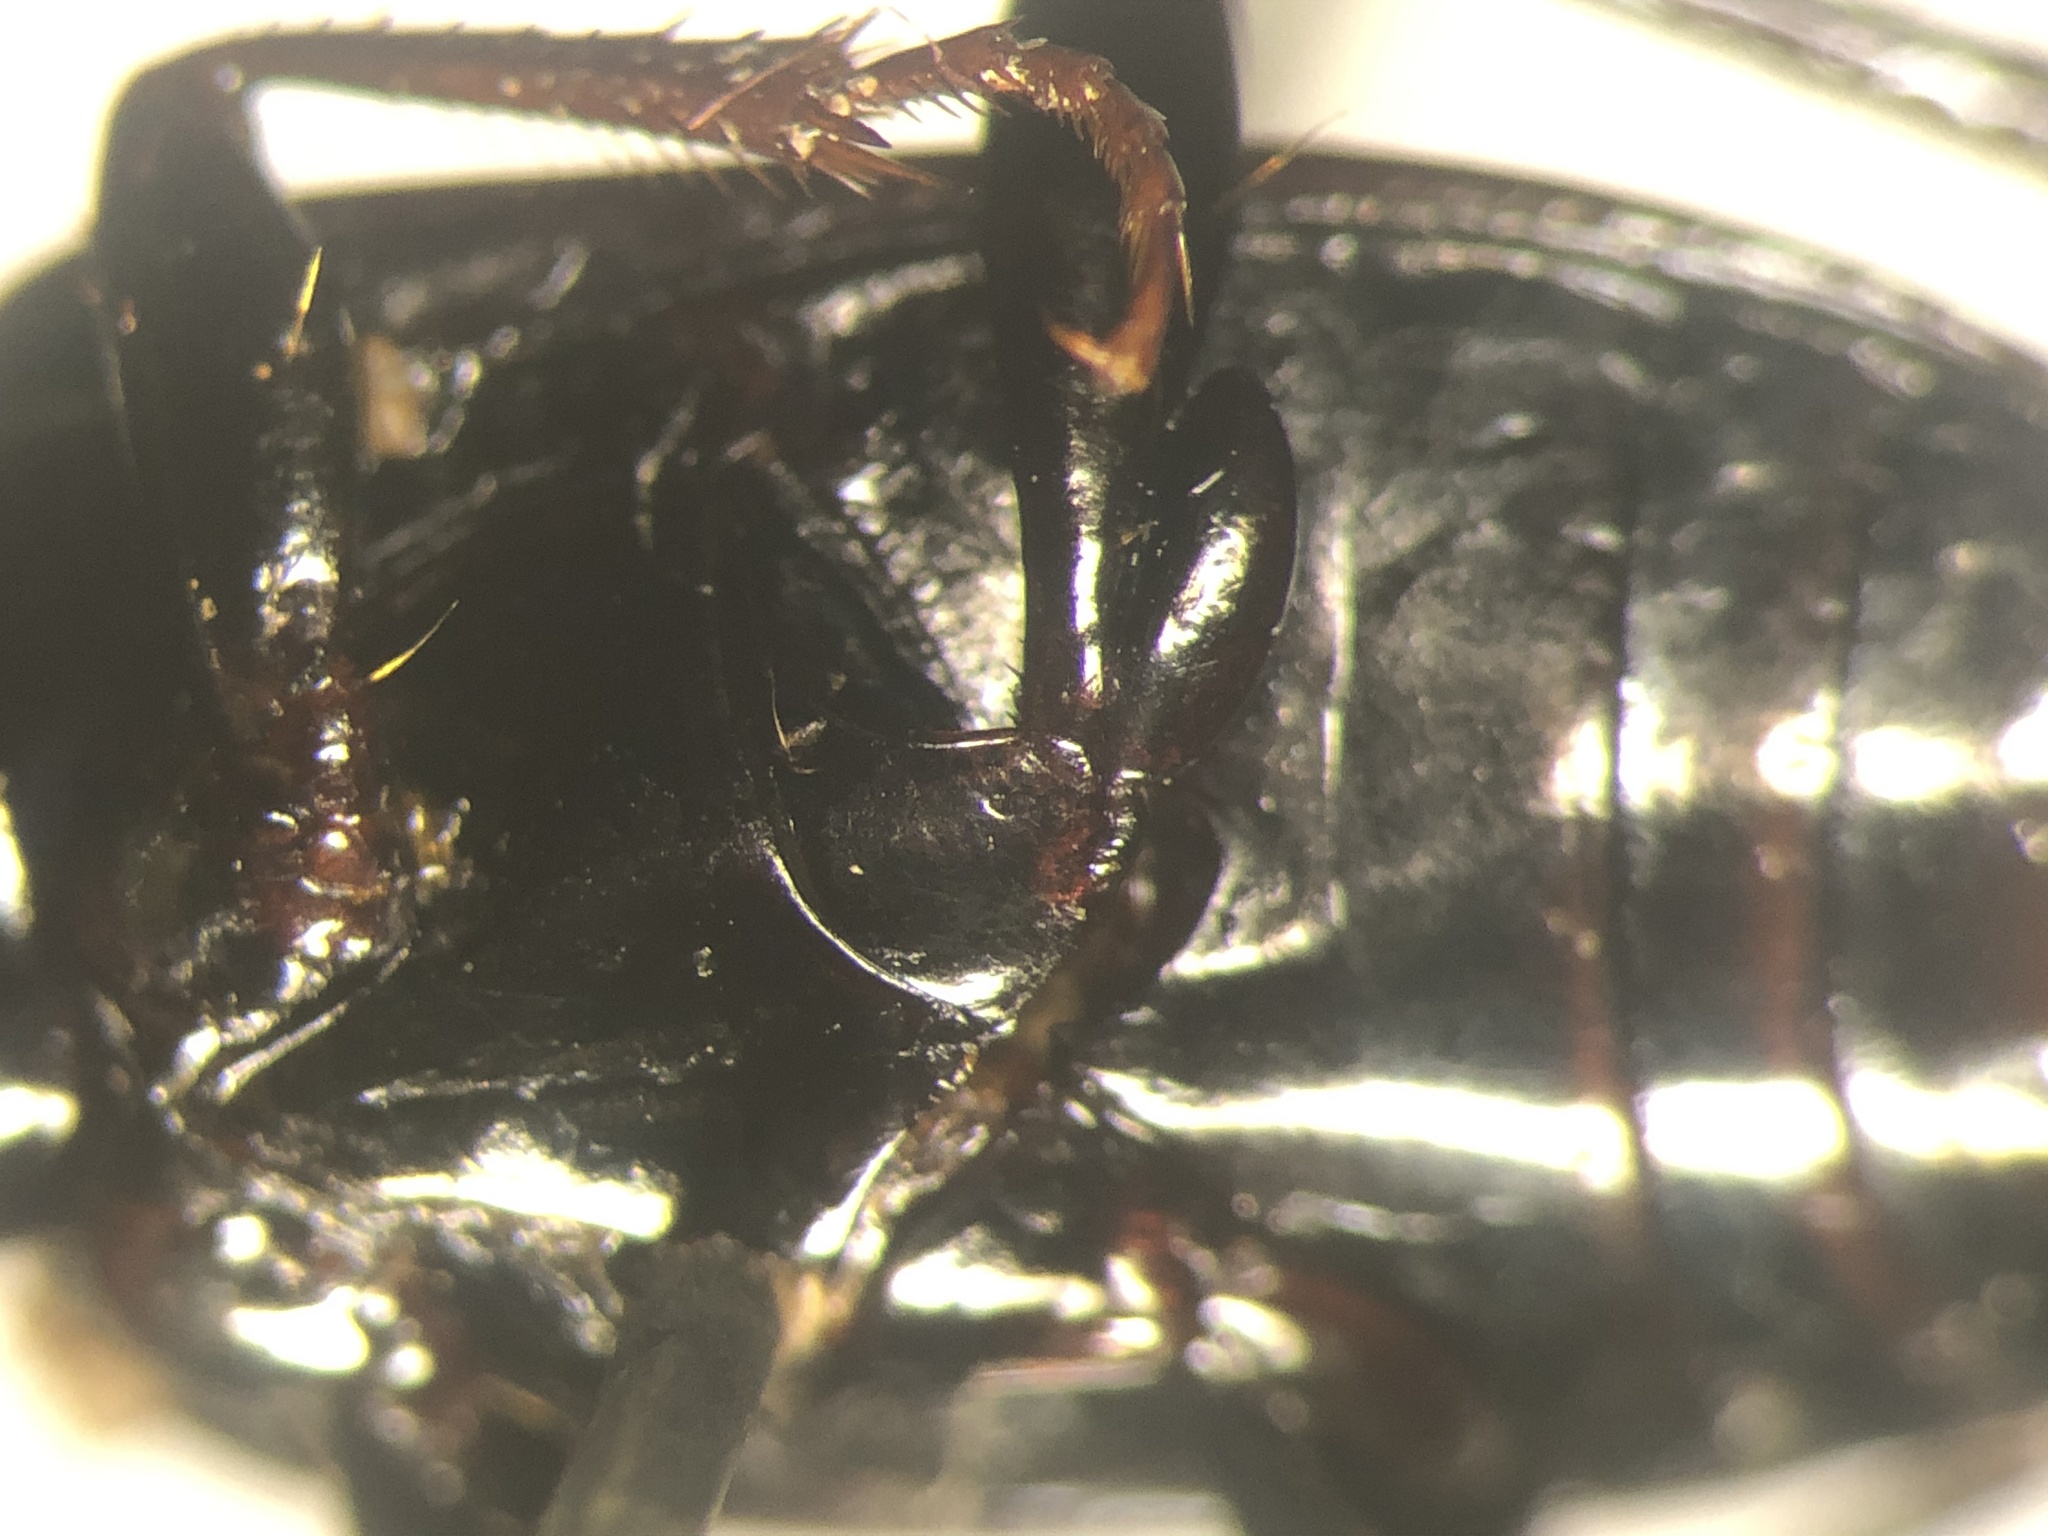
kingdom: Animalia
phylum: Arthropoda
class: Insecta
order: Coleoptera
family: Carabidae
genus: Pterostichus
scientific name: Pterostichus mutus
